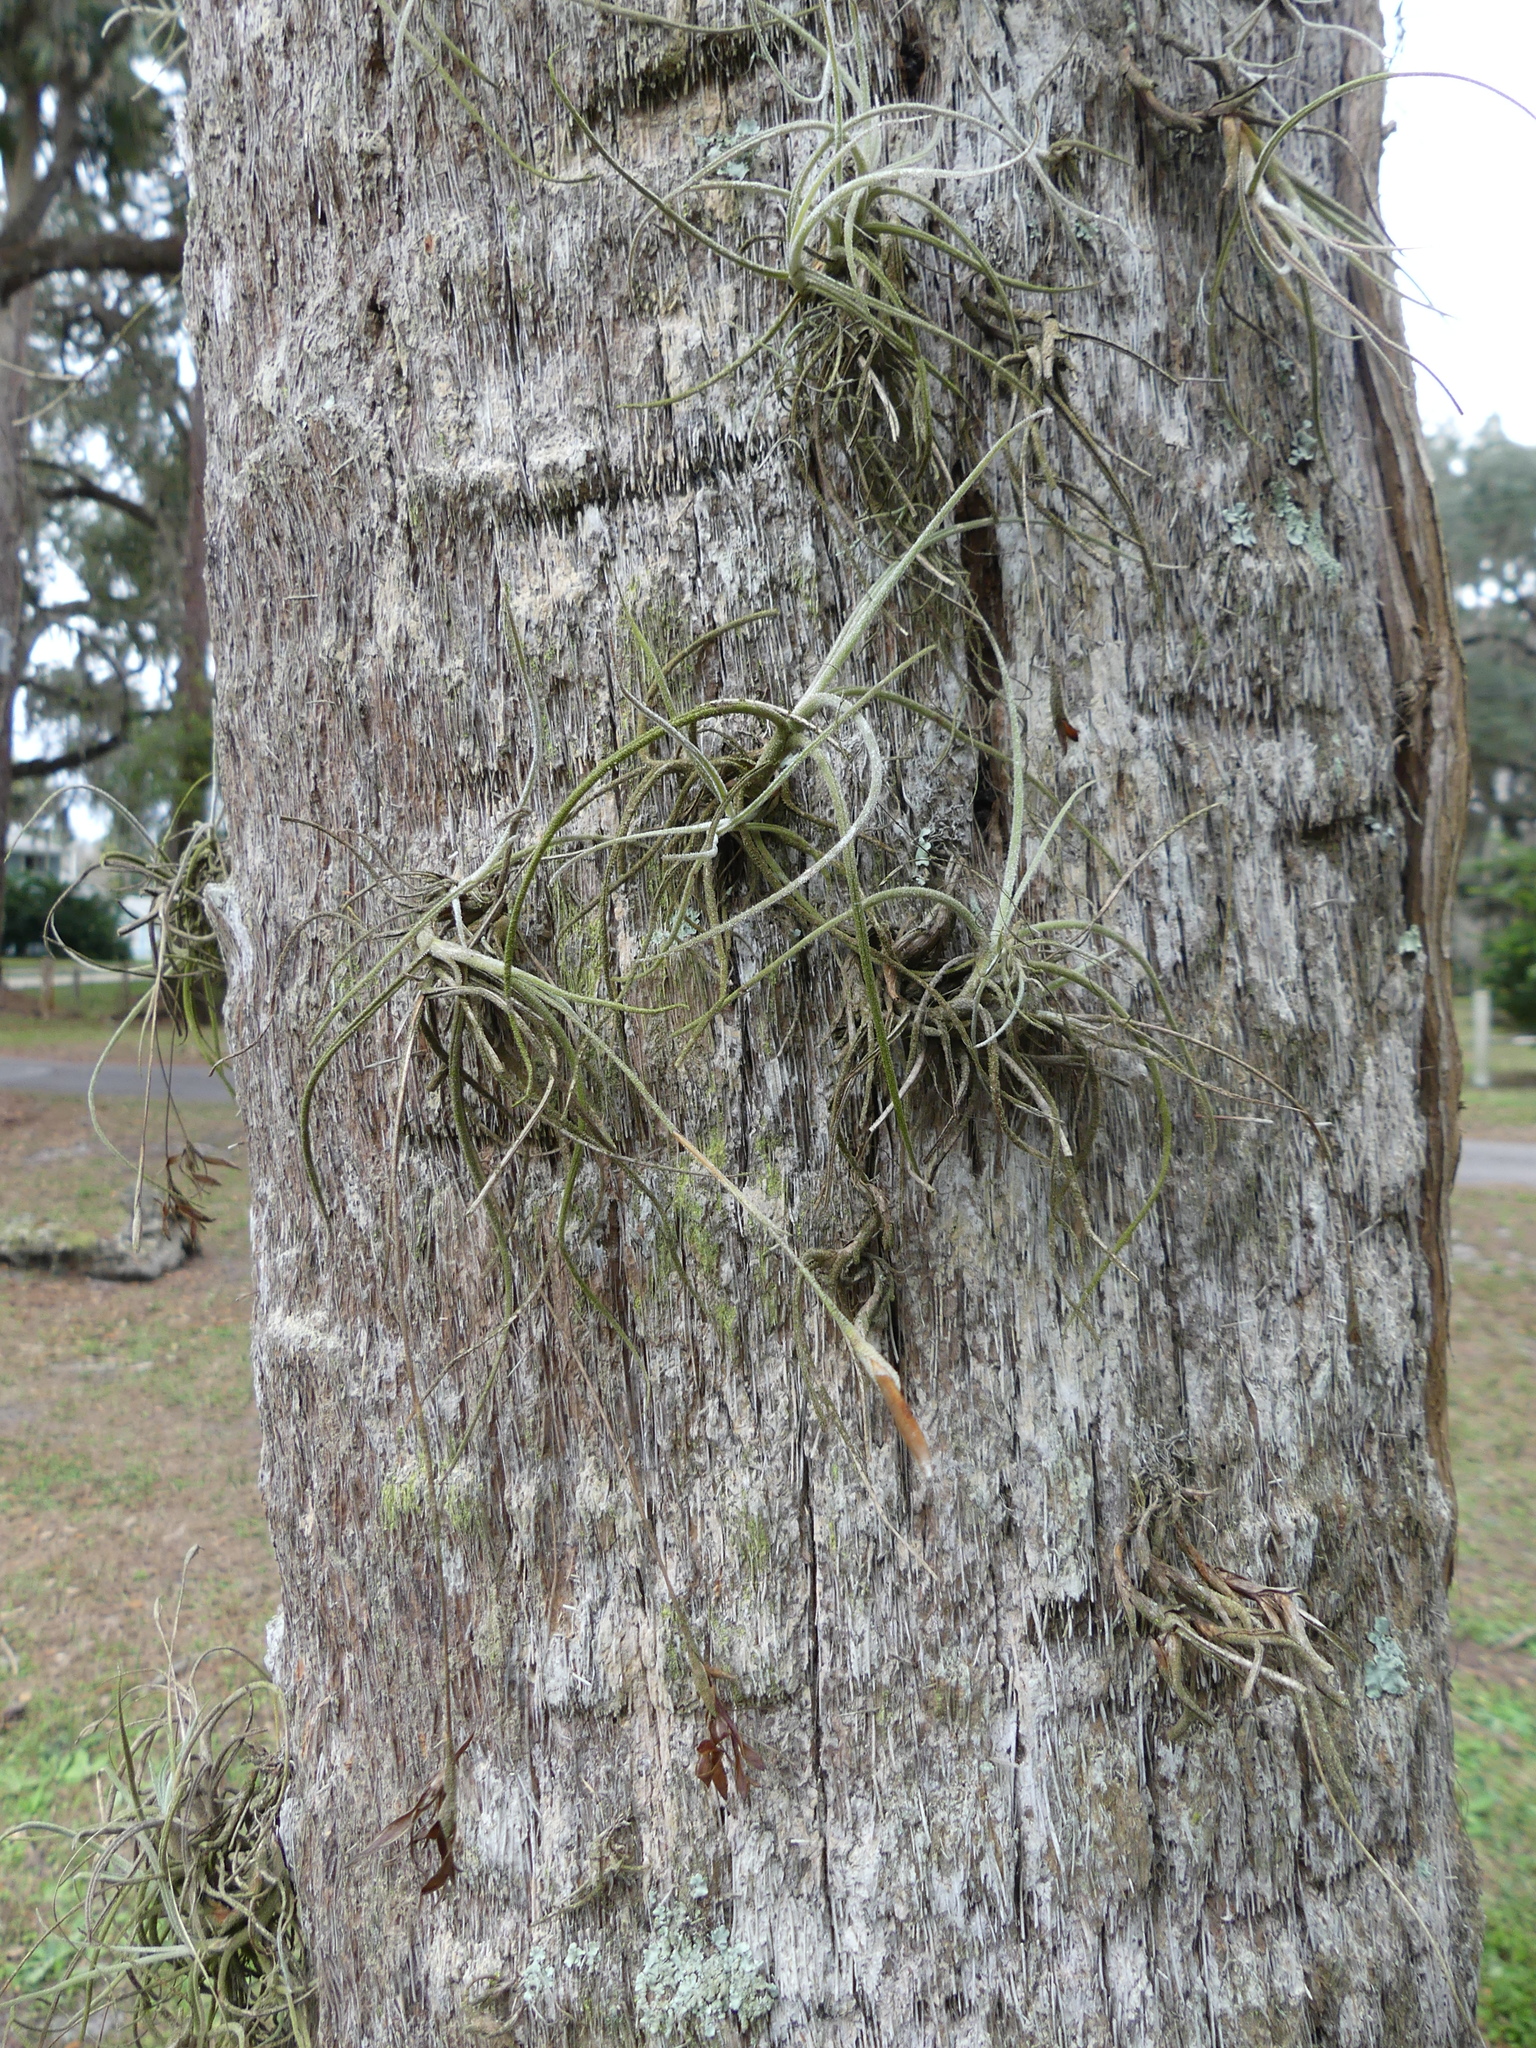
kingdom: Plantae
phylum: Tracheophyta
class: Liliopsida
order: Poales
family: Bromeliaceae
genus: Tillandsia
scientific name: Tillandsia recurvata
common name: Small ballmoss
